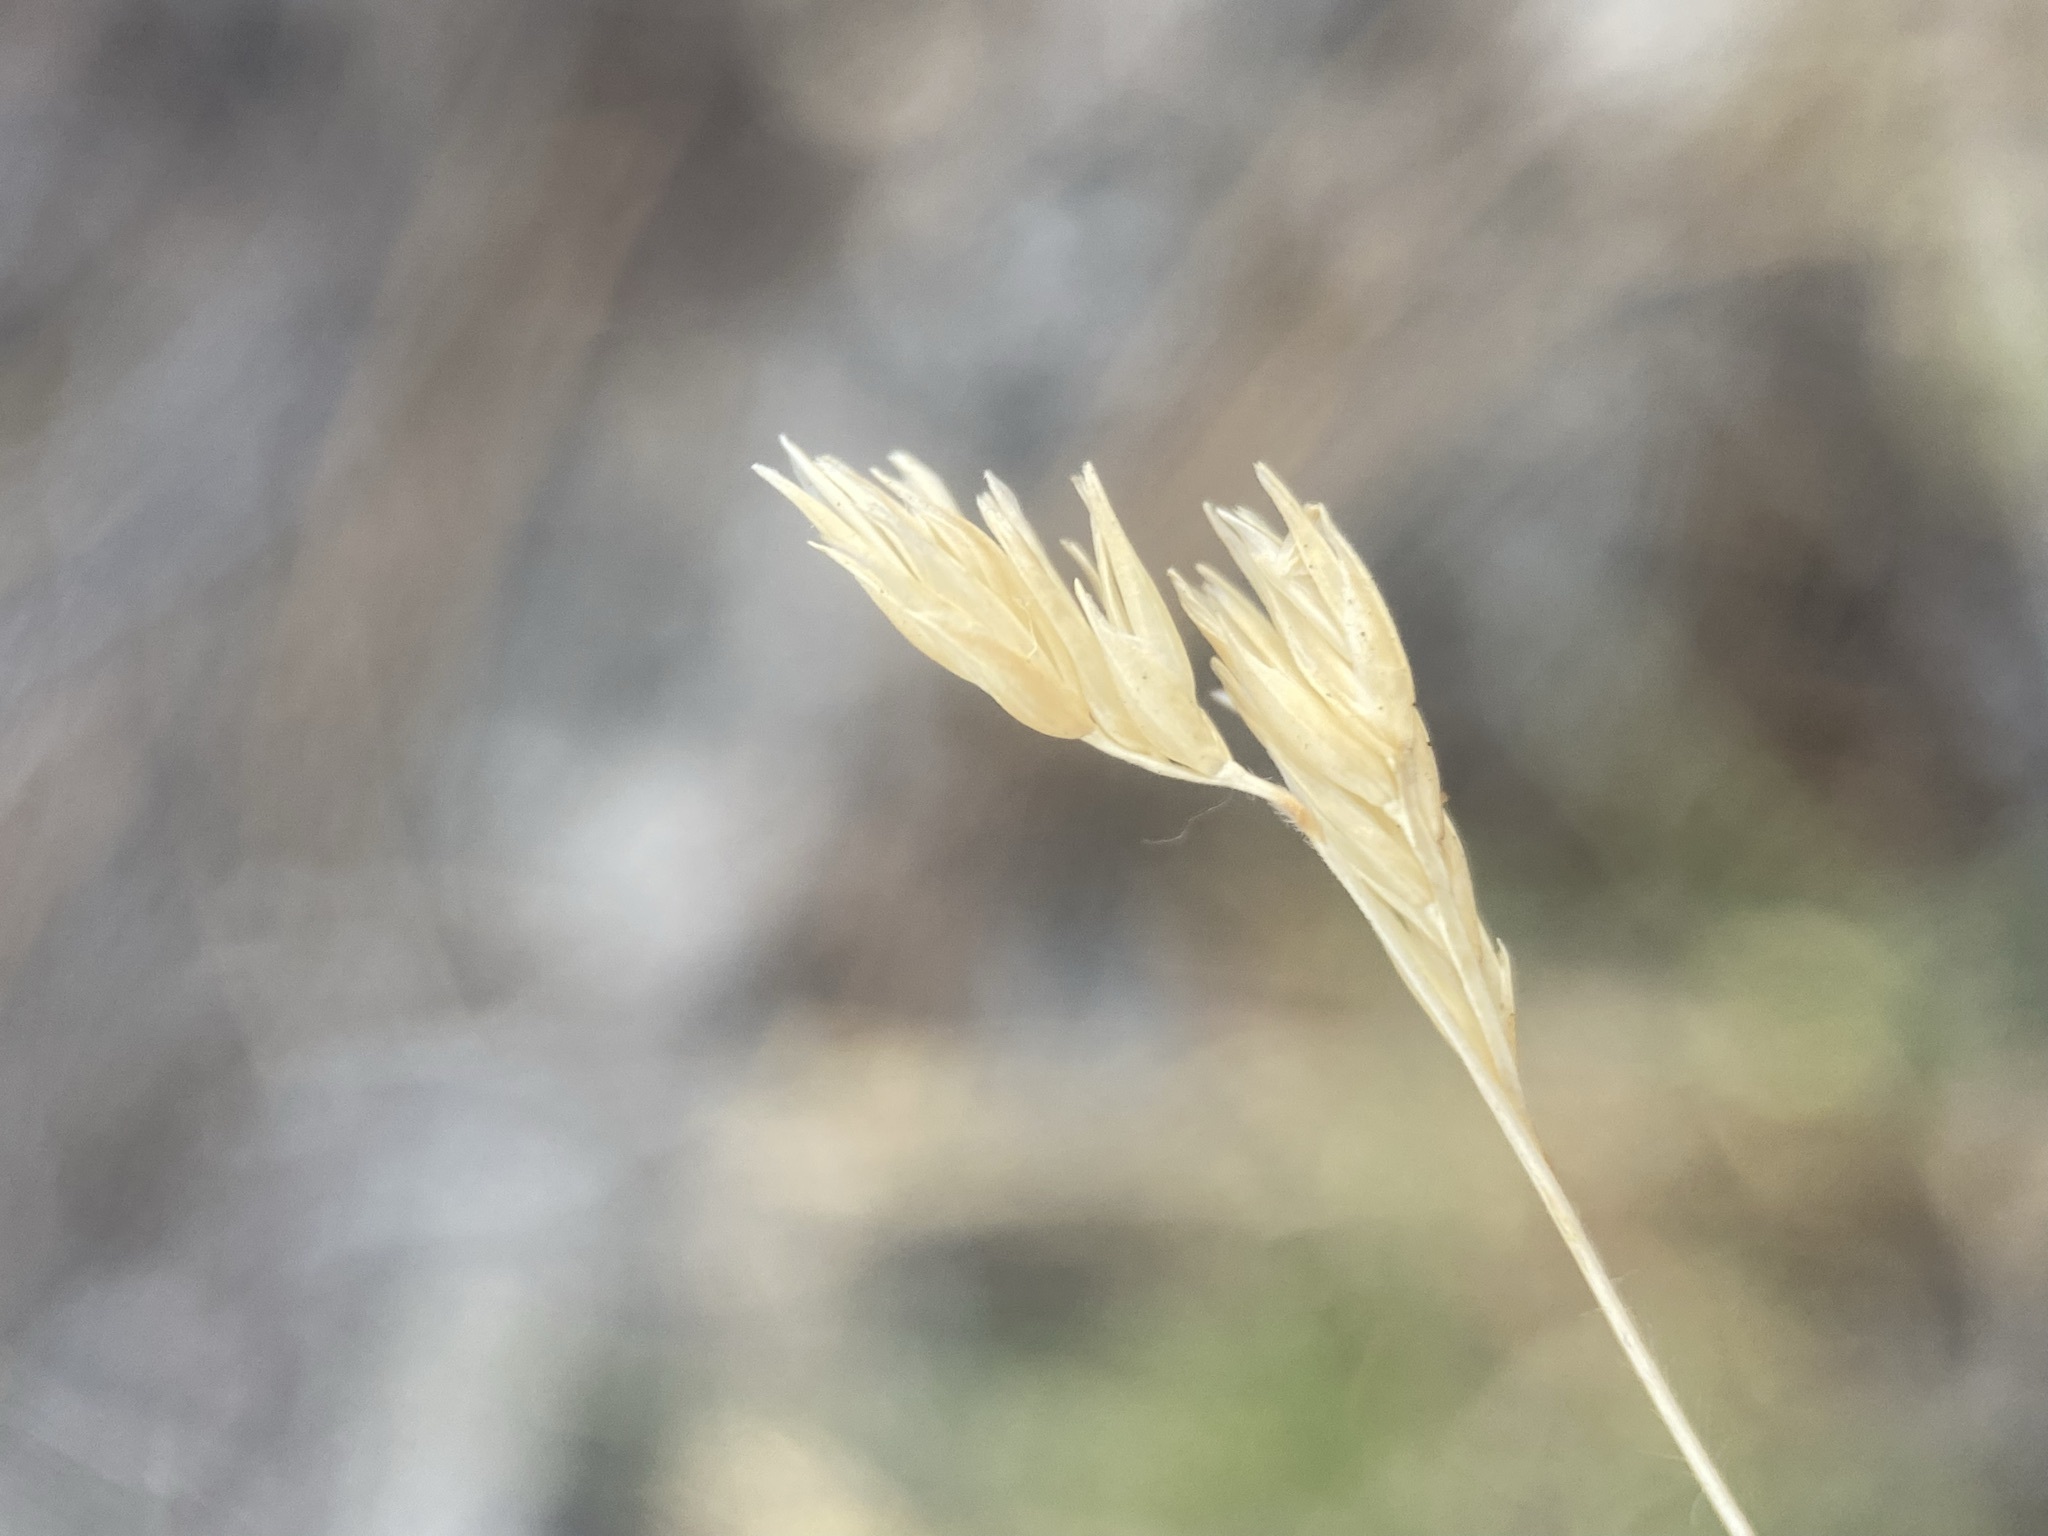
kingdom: Plantae
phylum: Tracheophyta
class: Liliopsida
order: Poales
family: Poaceae
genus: Bouteloua
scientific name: Bouteloua dactyloides
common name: Buffalo grass
